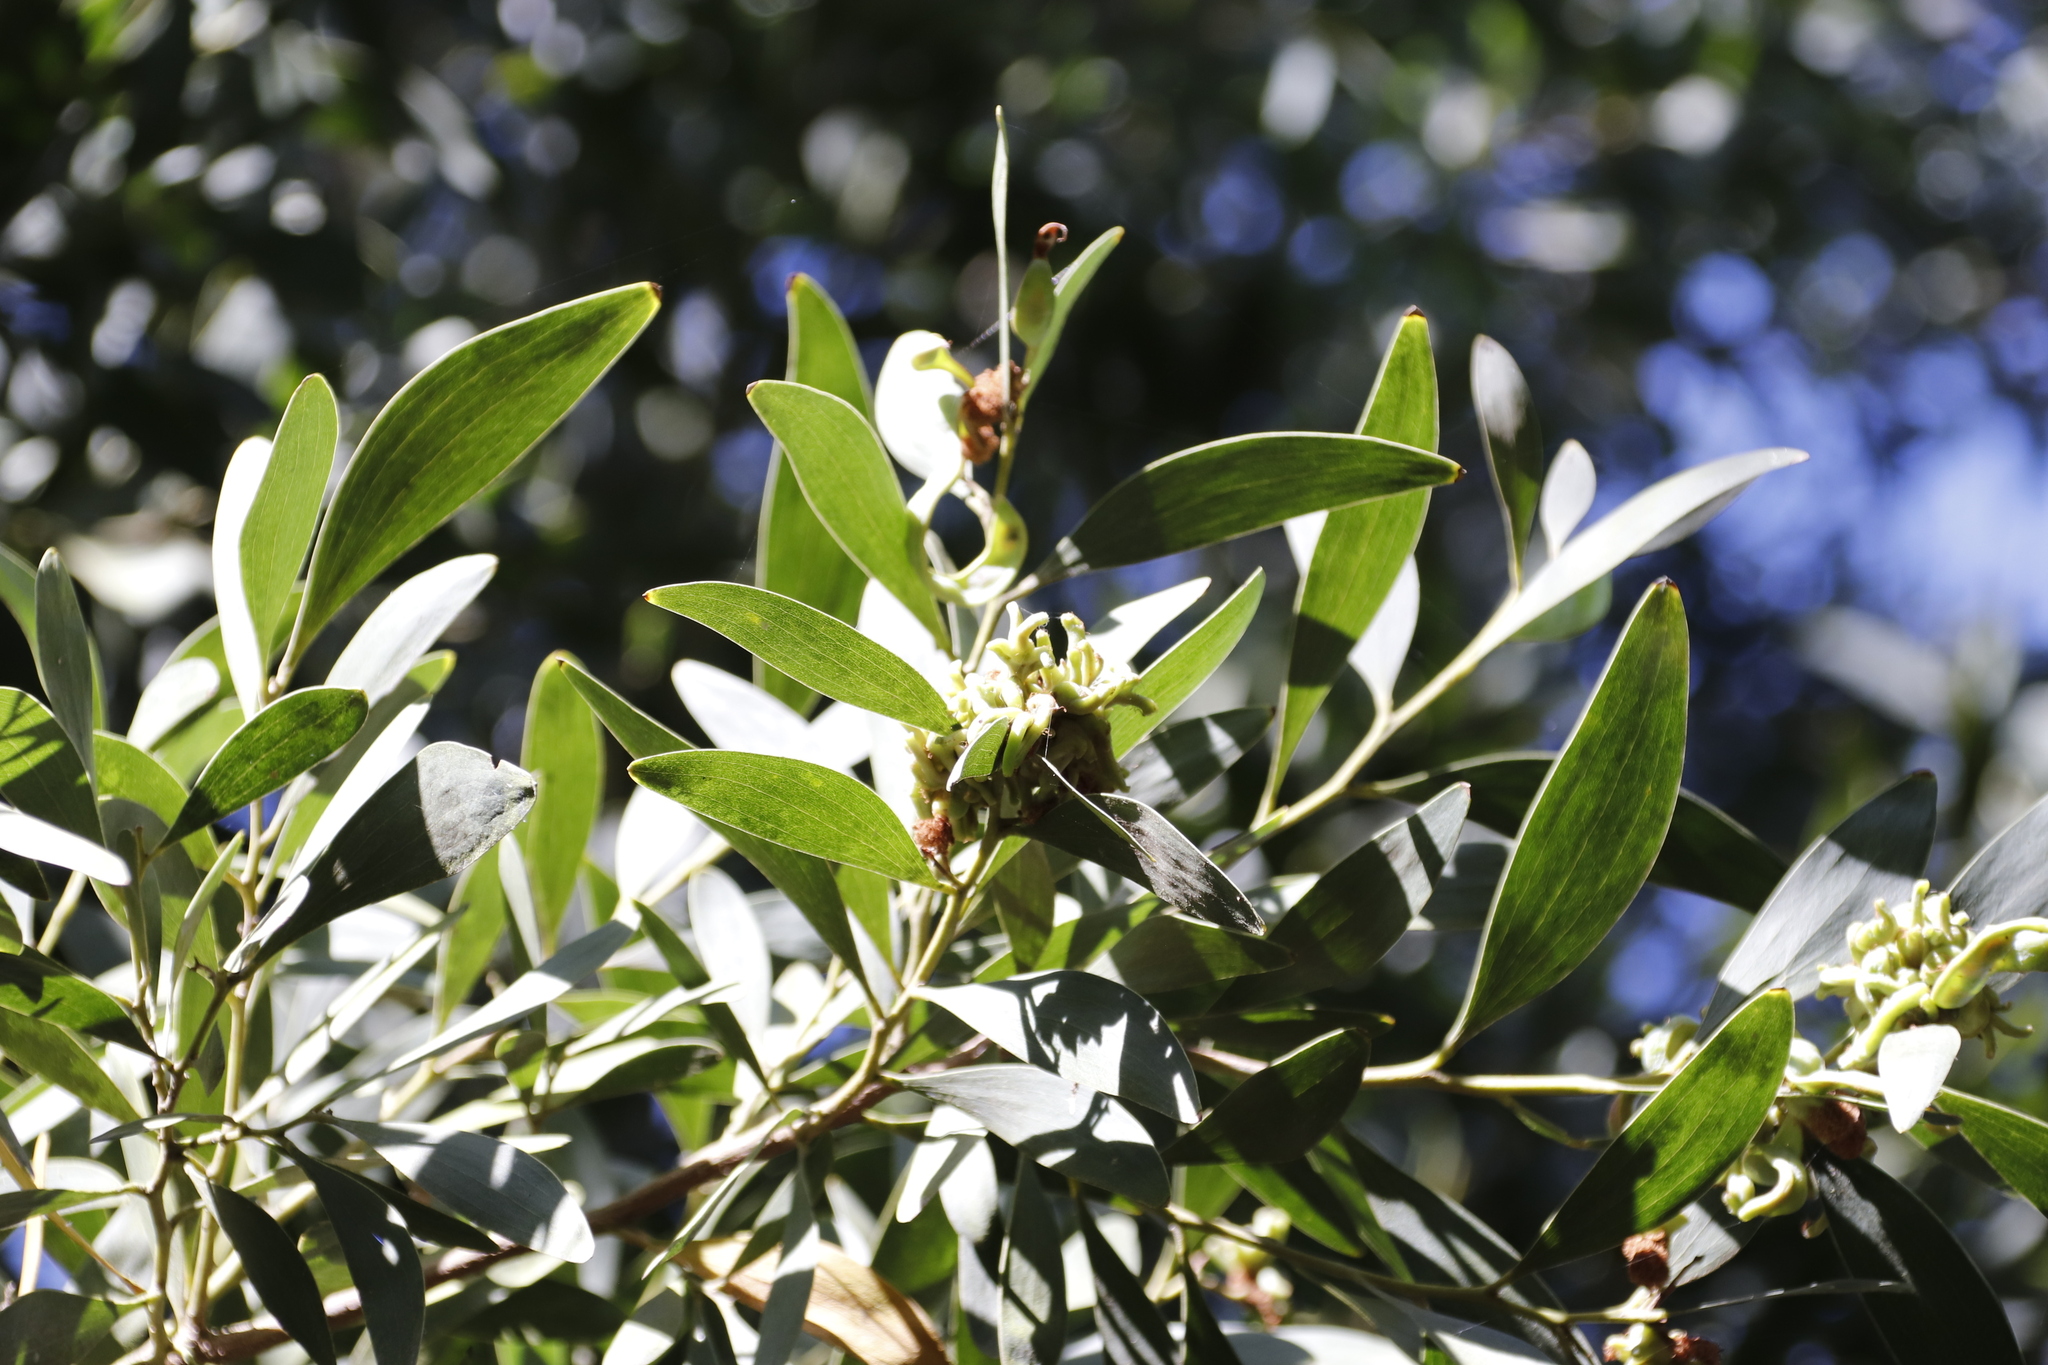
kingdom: Plantae
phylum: Tracheophyta
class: Magnoliopsida
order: Fabales
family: Fabaceae
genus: Acacia
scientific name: Acacia melanoxylon
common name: Blackwood
